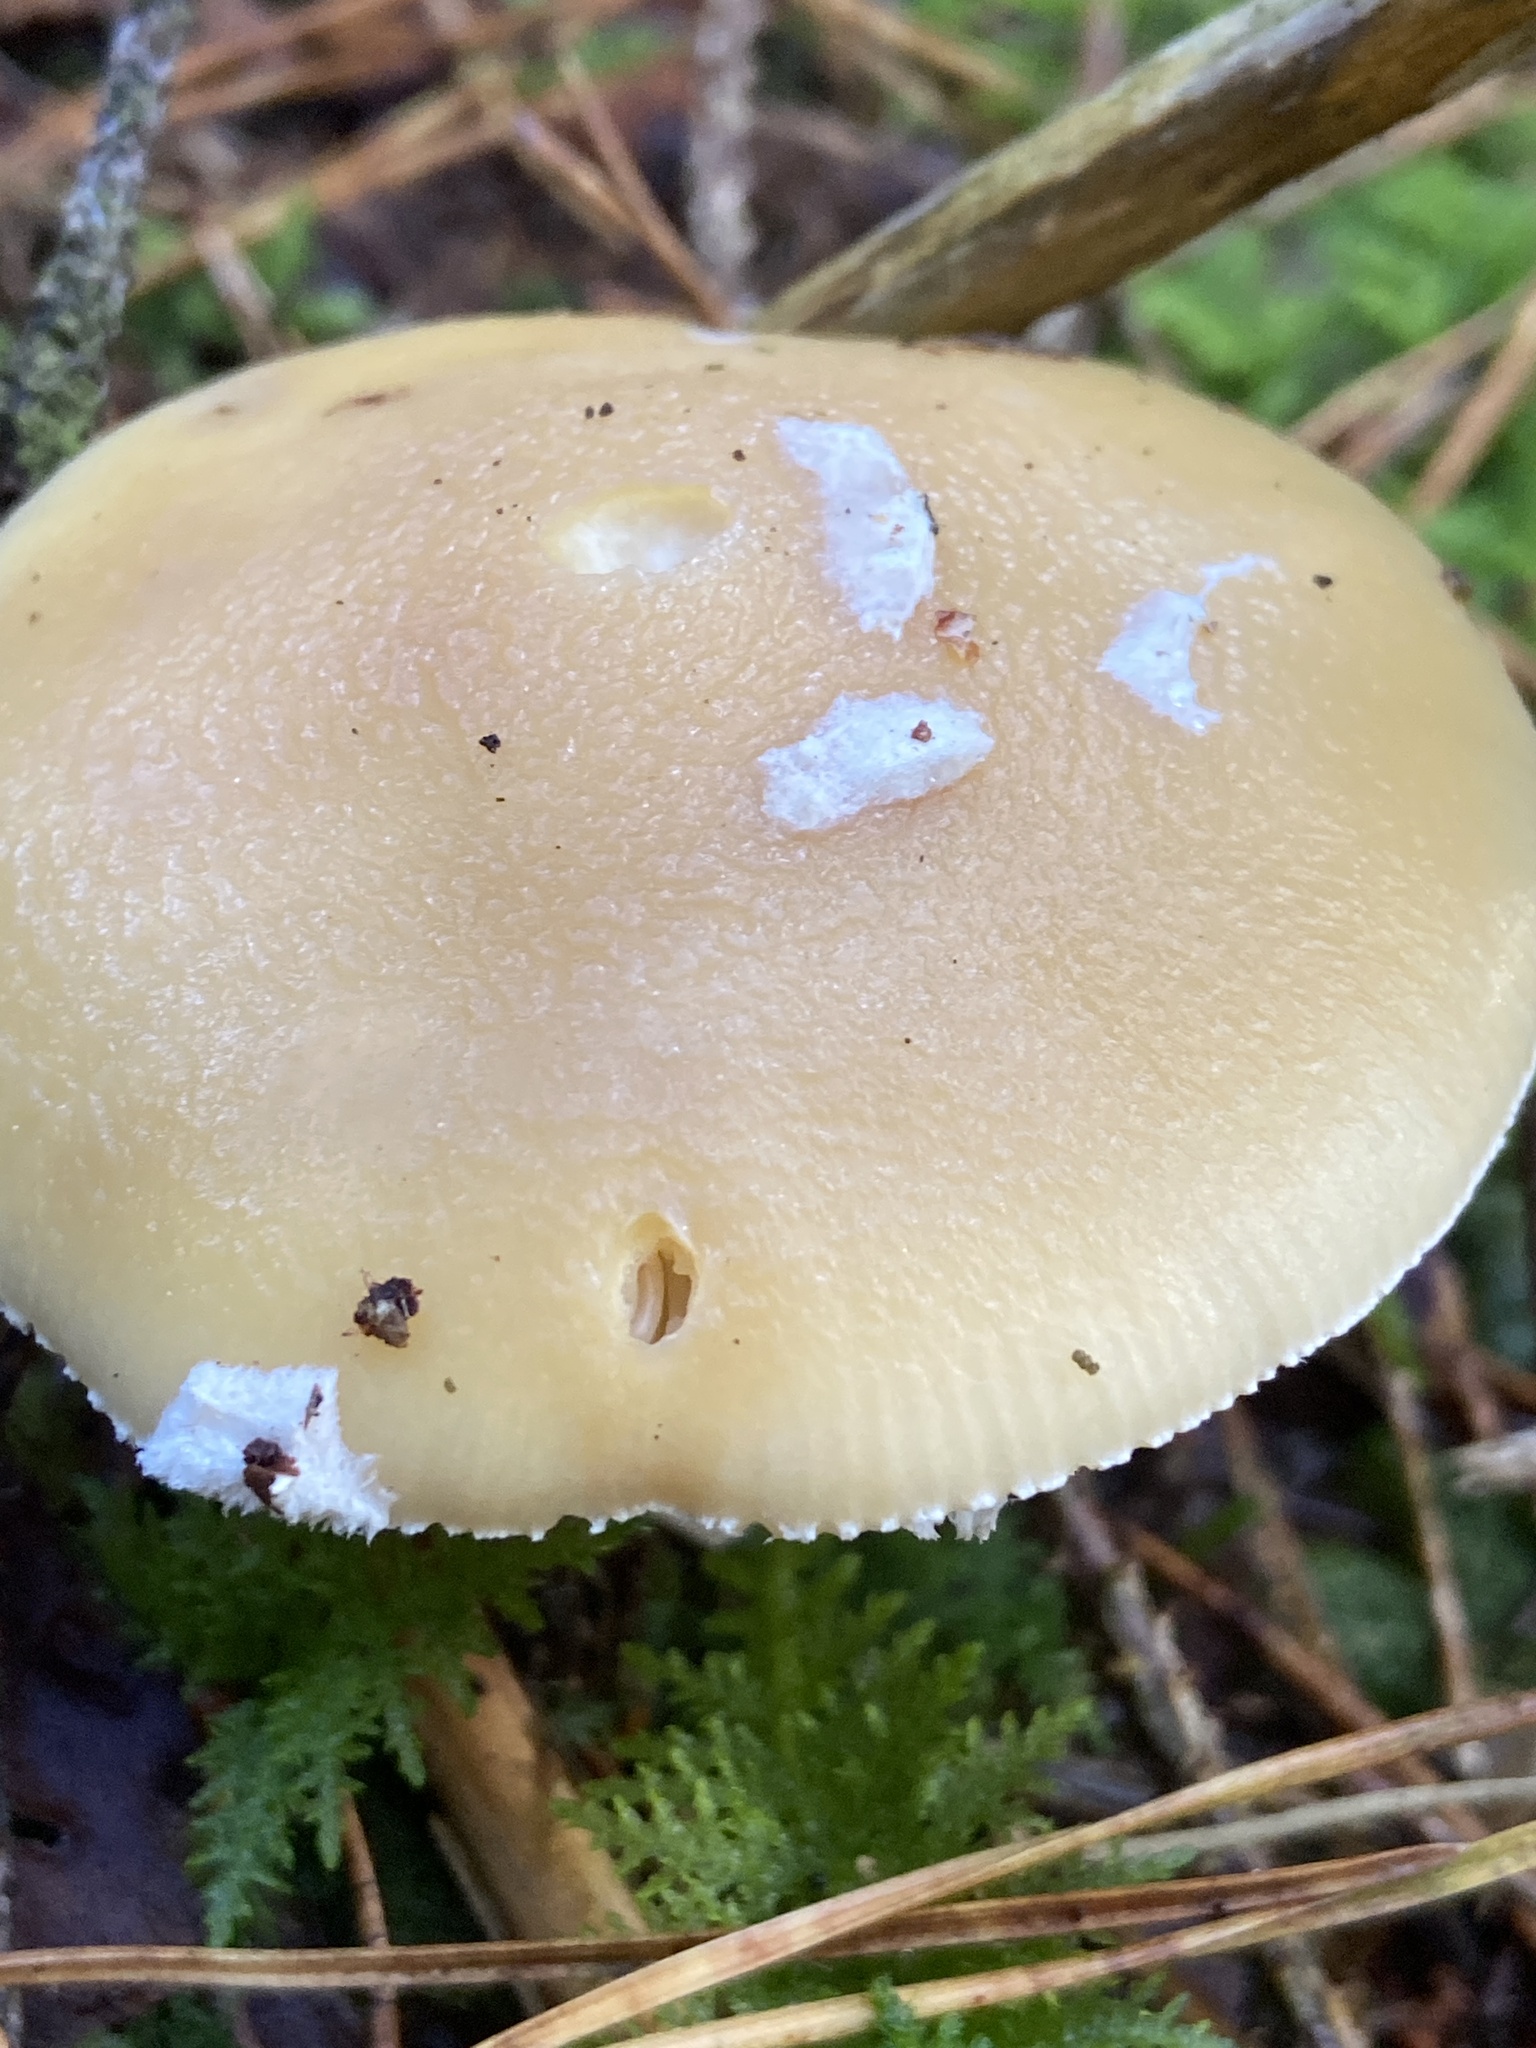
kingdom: Fungi
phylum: Basidiomycota
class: Agaricomycetes
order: Agaricales
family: Amanitaceae
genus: Amanita
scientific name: Amanita gemmata
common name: Jewelled amanita
